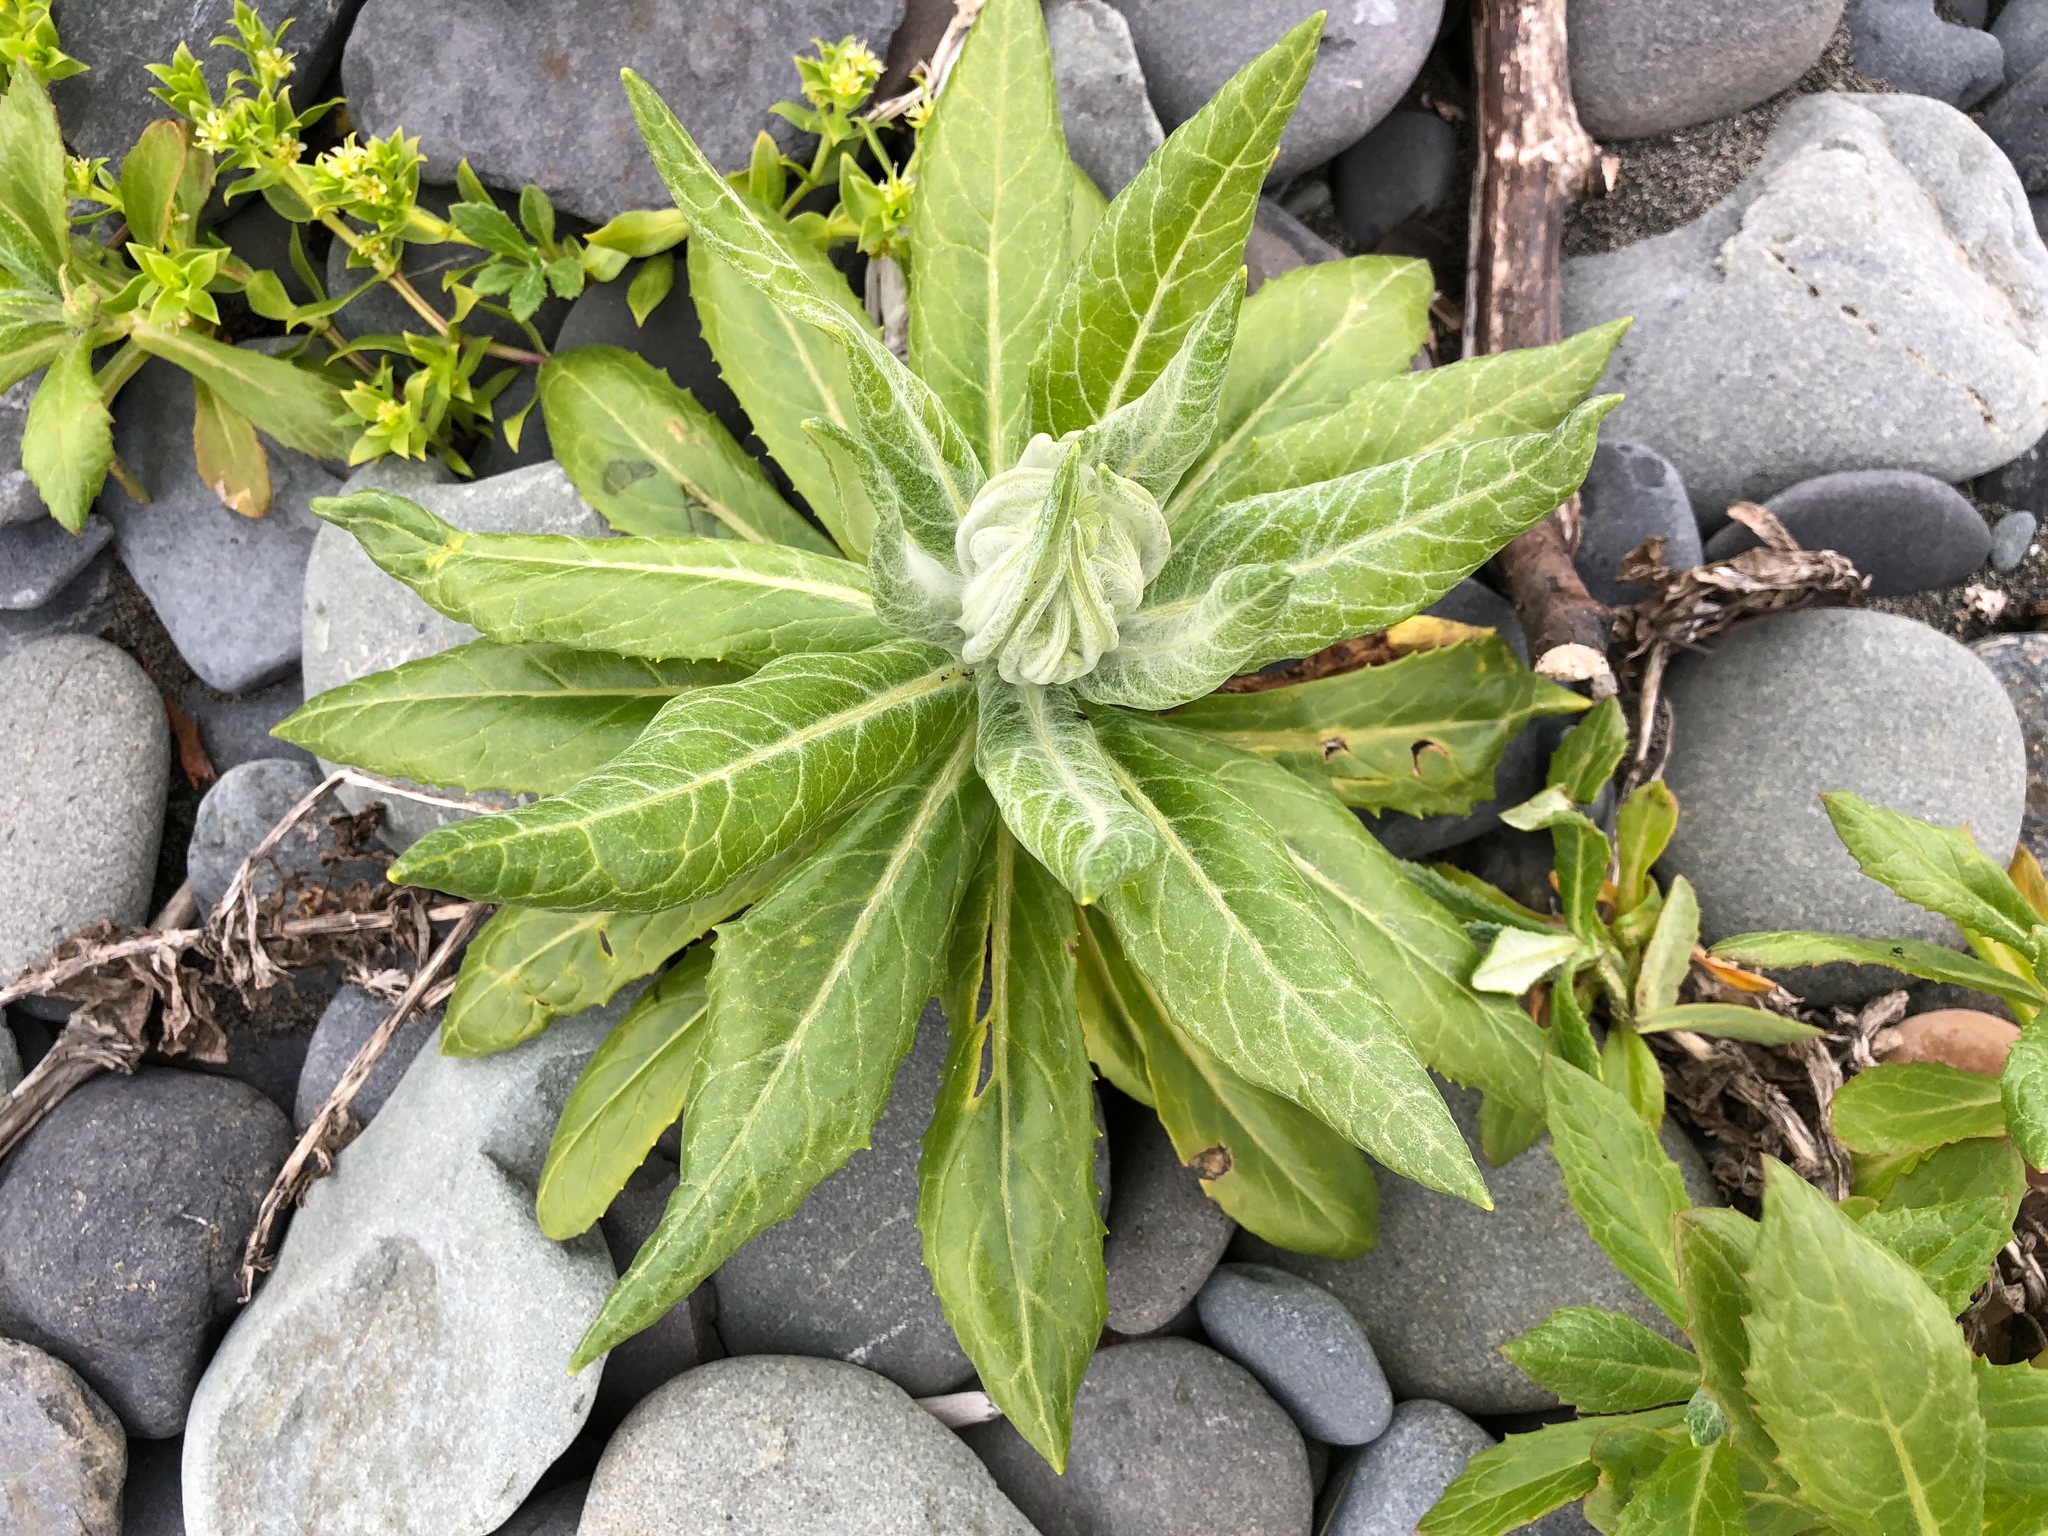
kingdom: Plantae
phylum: Tracheophyta
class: Magnoliopsida
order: Asterales
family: Asteraceae
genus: Jacobaea
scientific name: Jacobaea pseudoarnica
